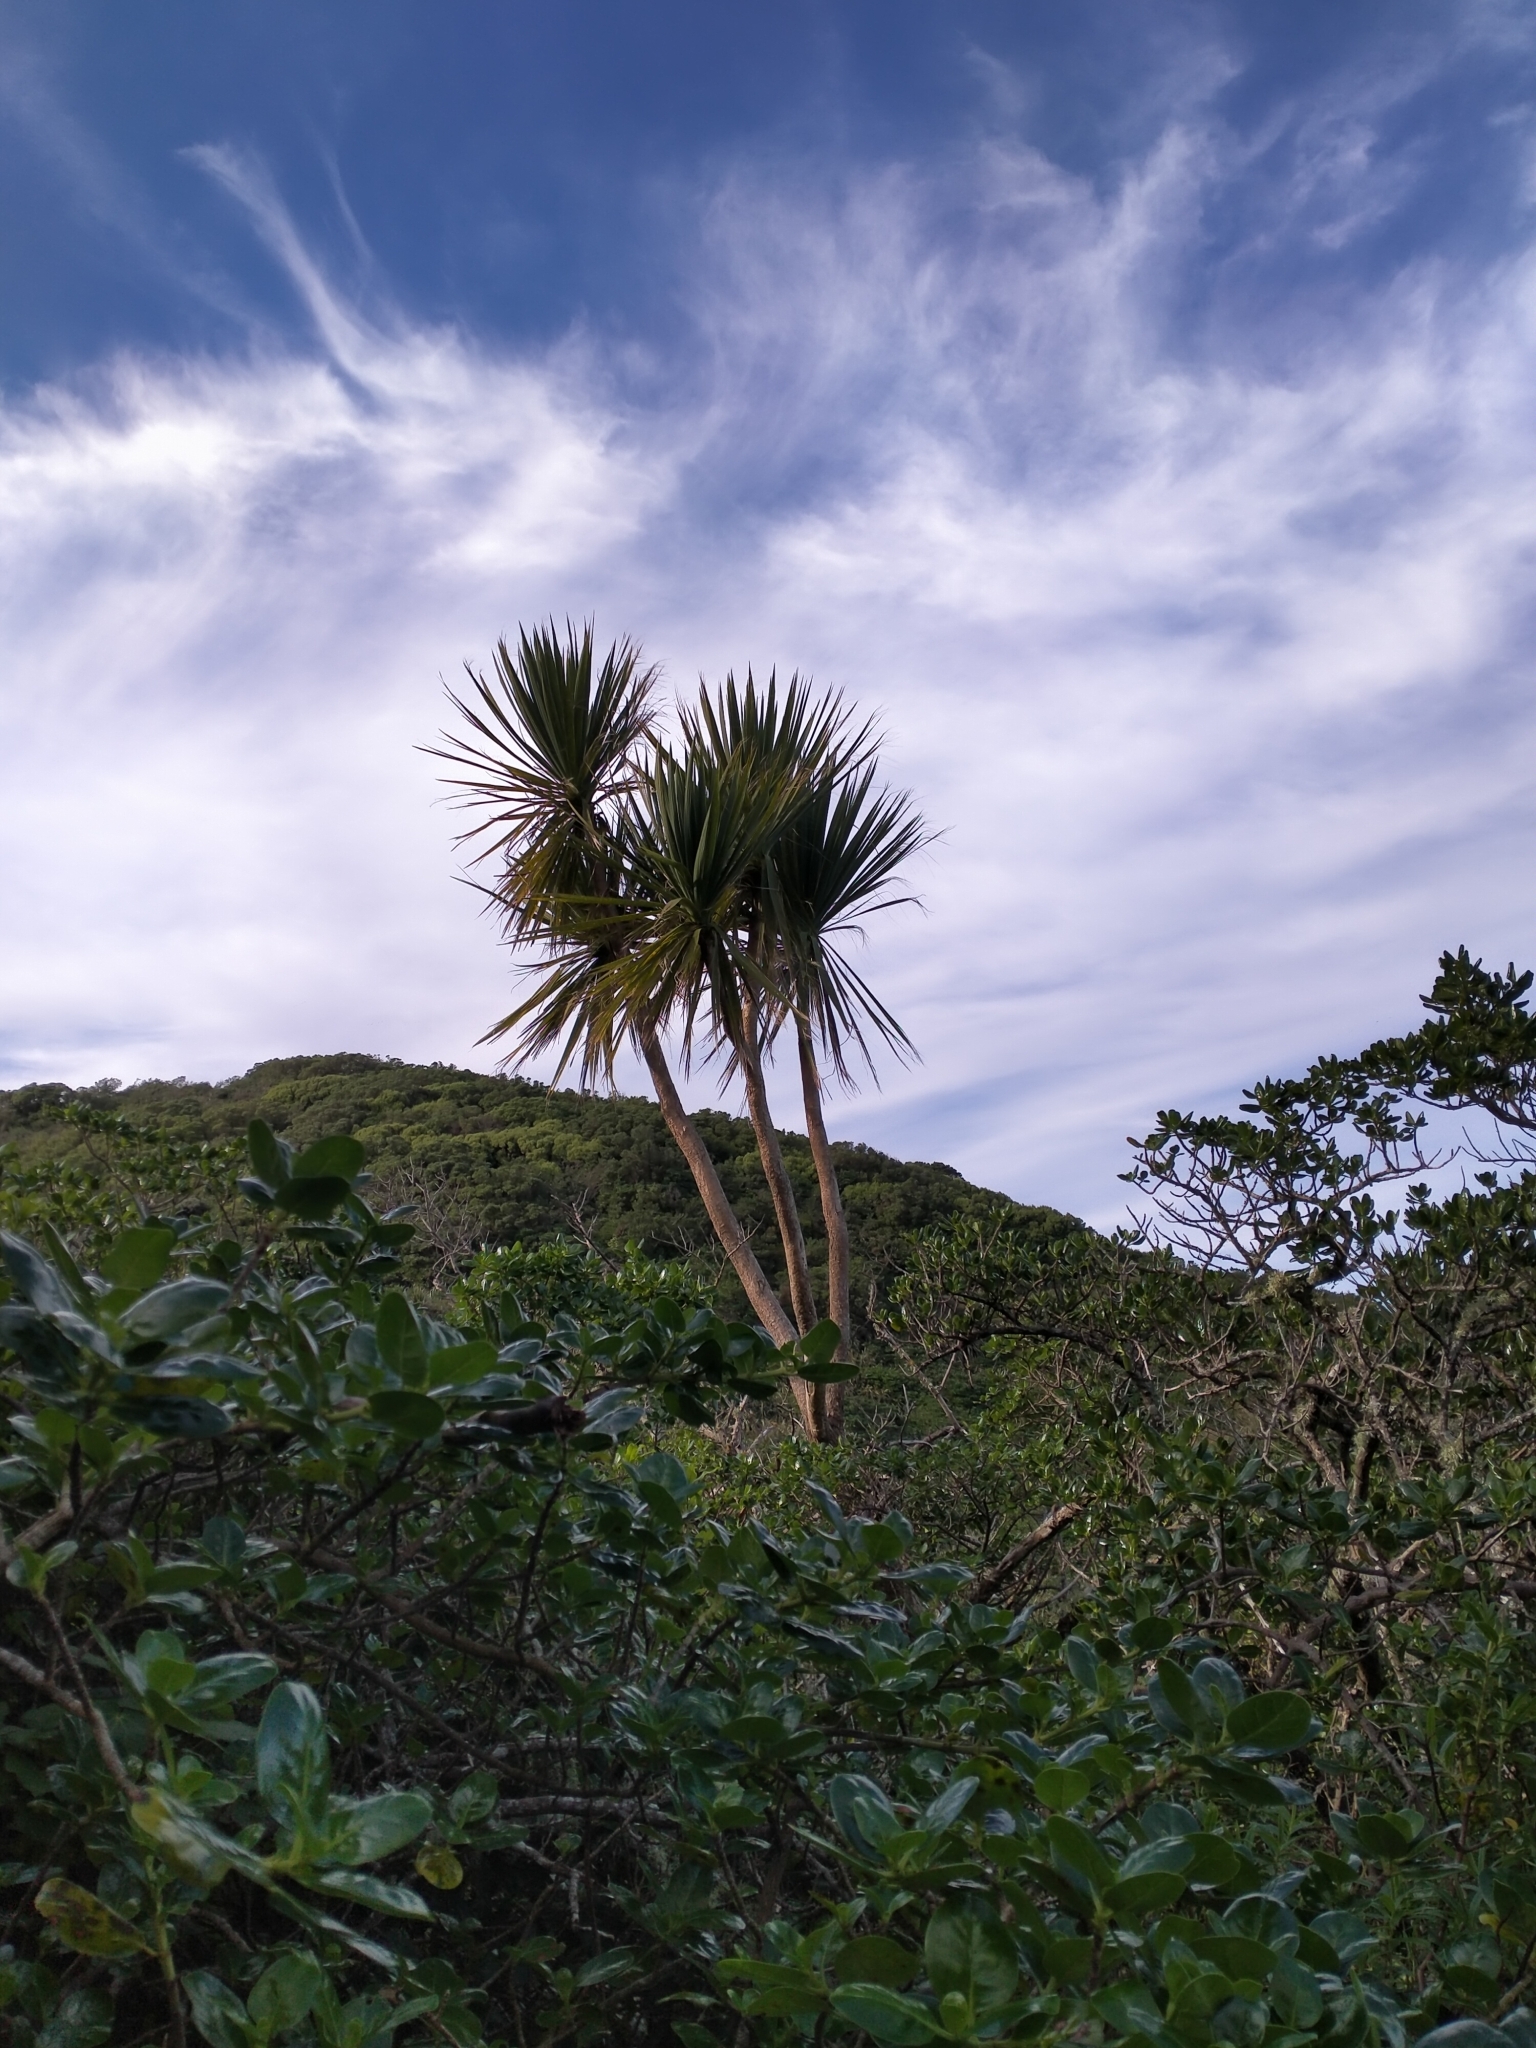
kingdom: Plantae
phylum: Tracheophyta
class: Liliopsida
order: Asparagales
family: Asparagaceae
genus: Cordyline
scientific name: Cordyline australis
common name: Cabbage-palm
